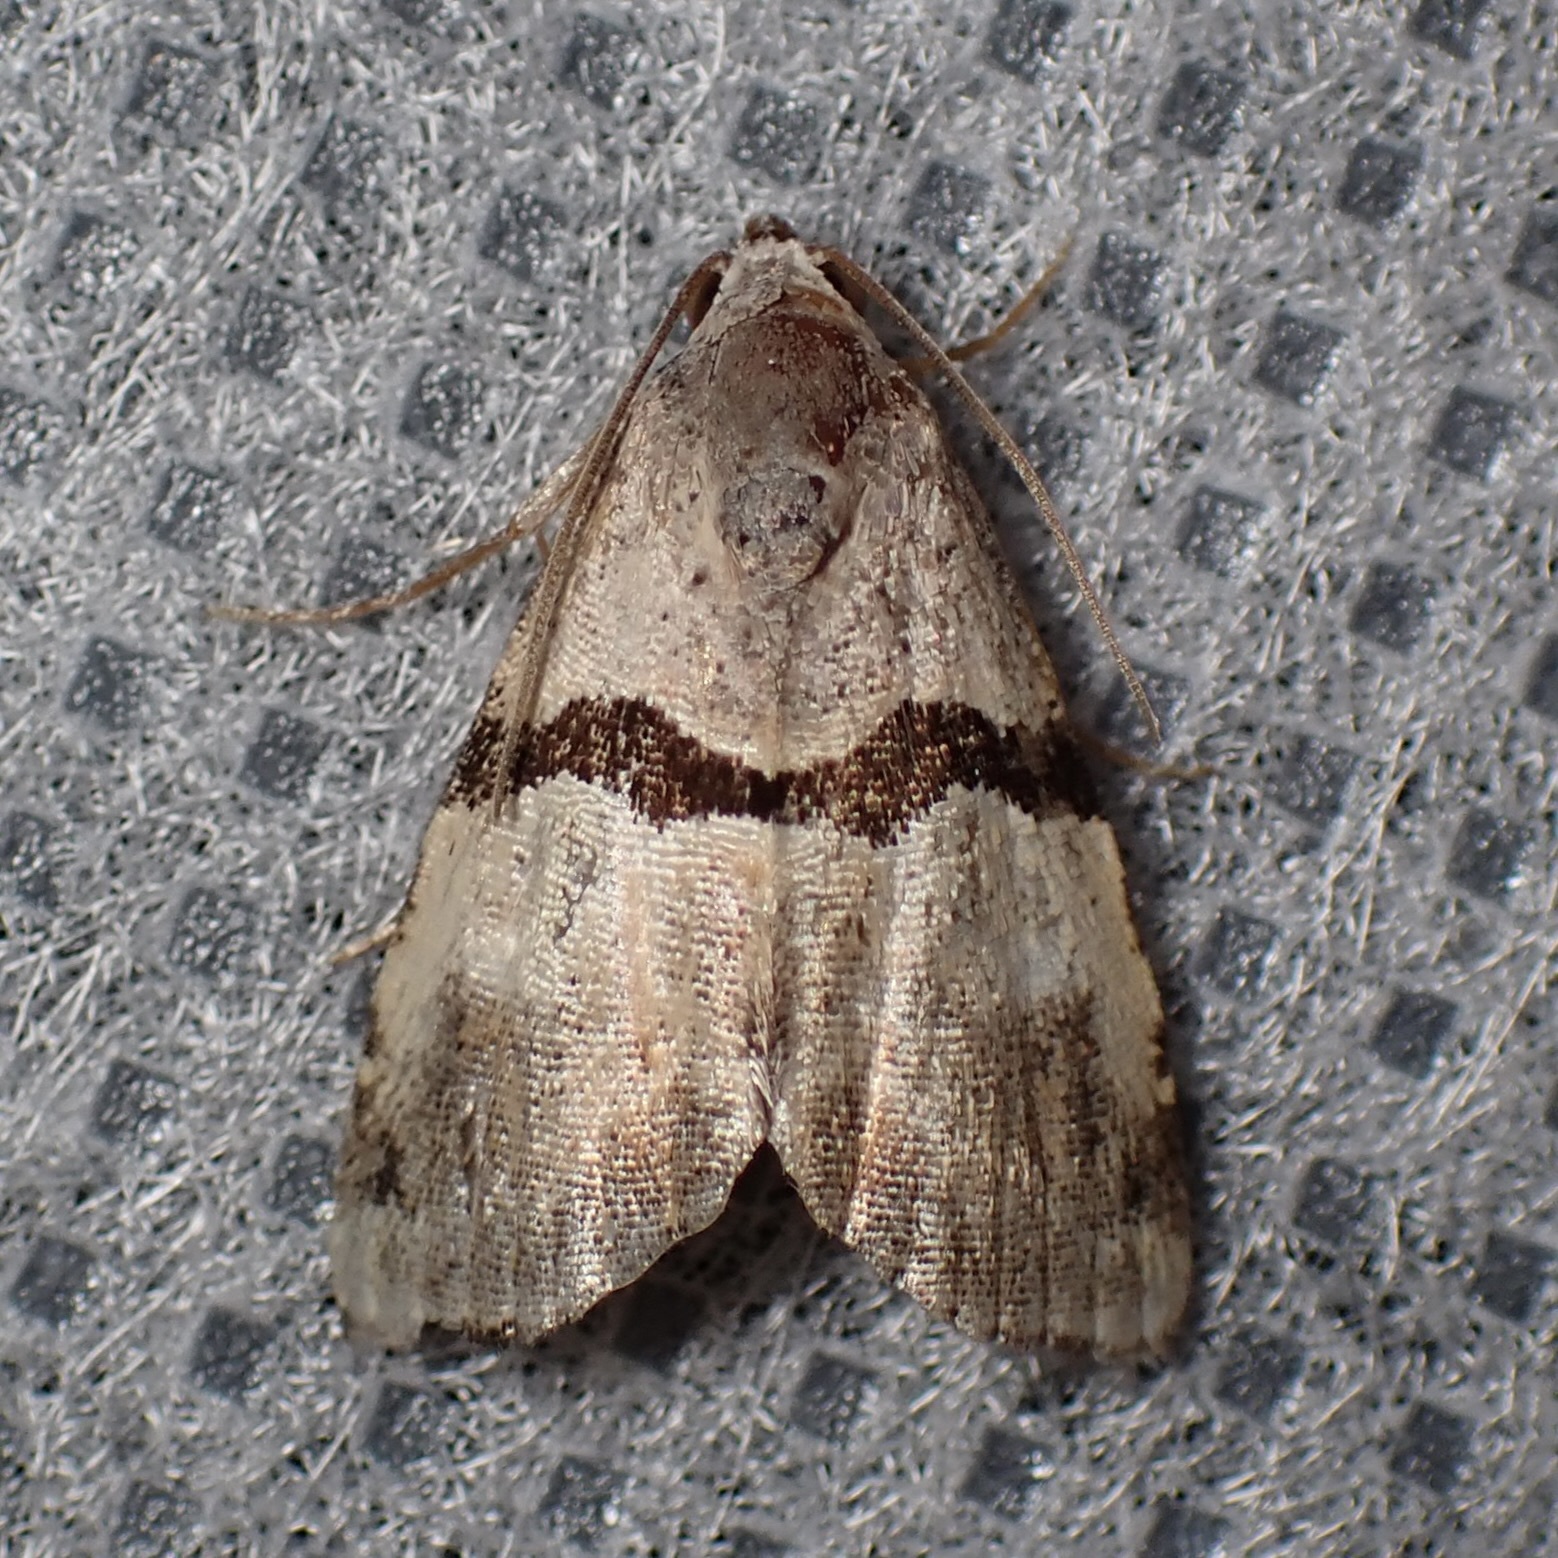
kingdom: Animalia
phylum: Arthropoda
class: Insecta
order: Lepidoptera
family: Noctuidae
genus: Cobubatha
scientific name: Cobubatha lixiva
